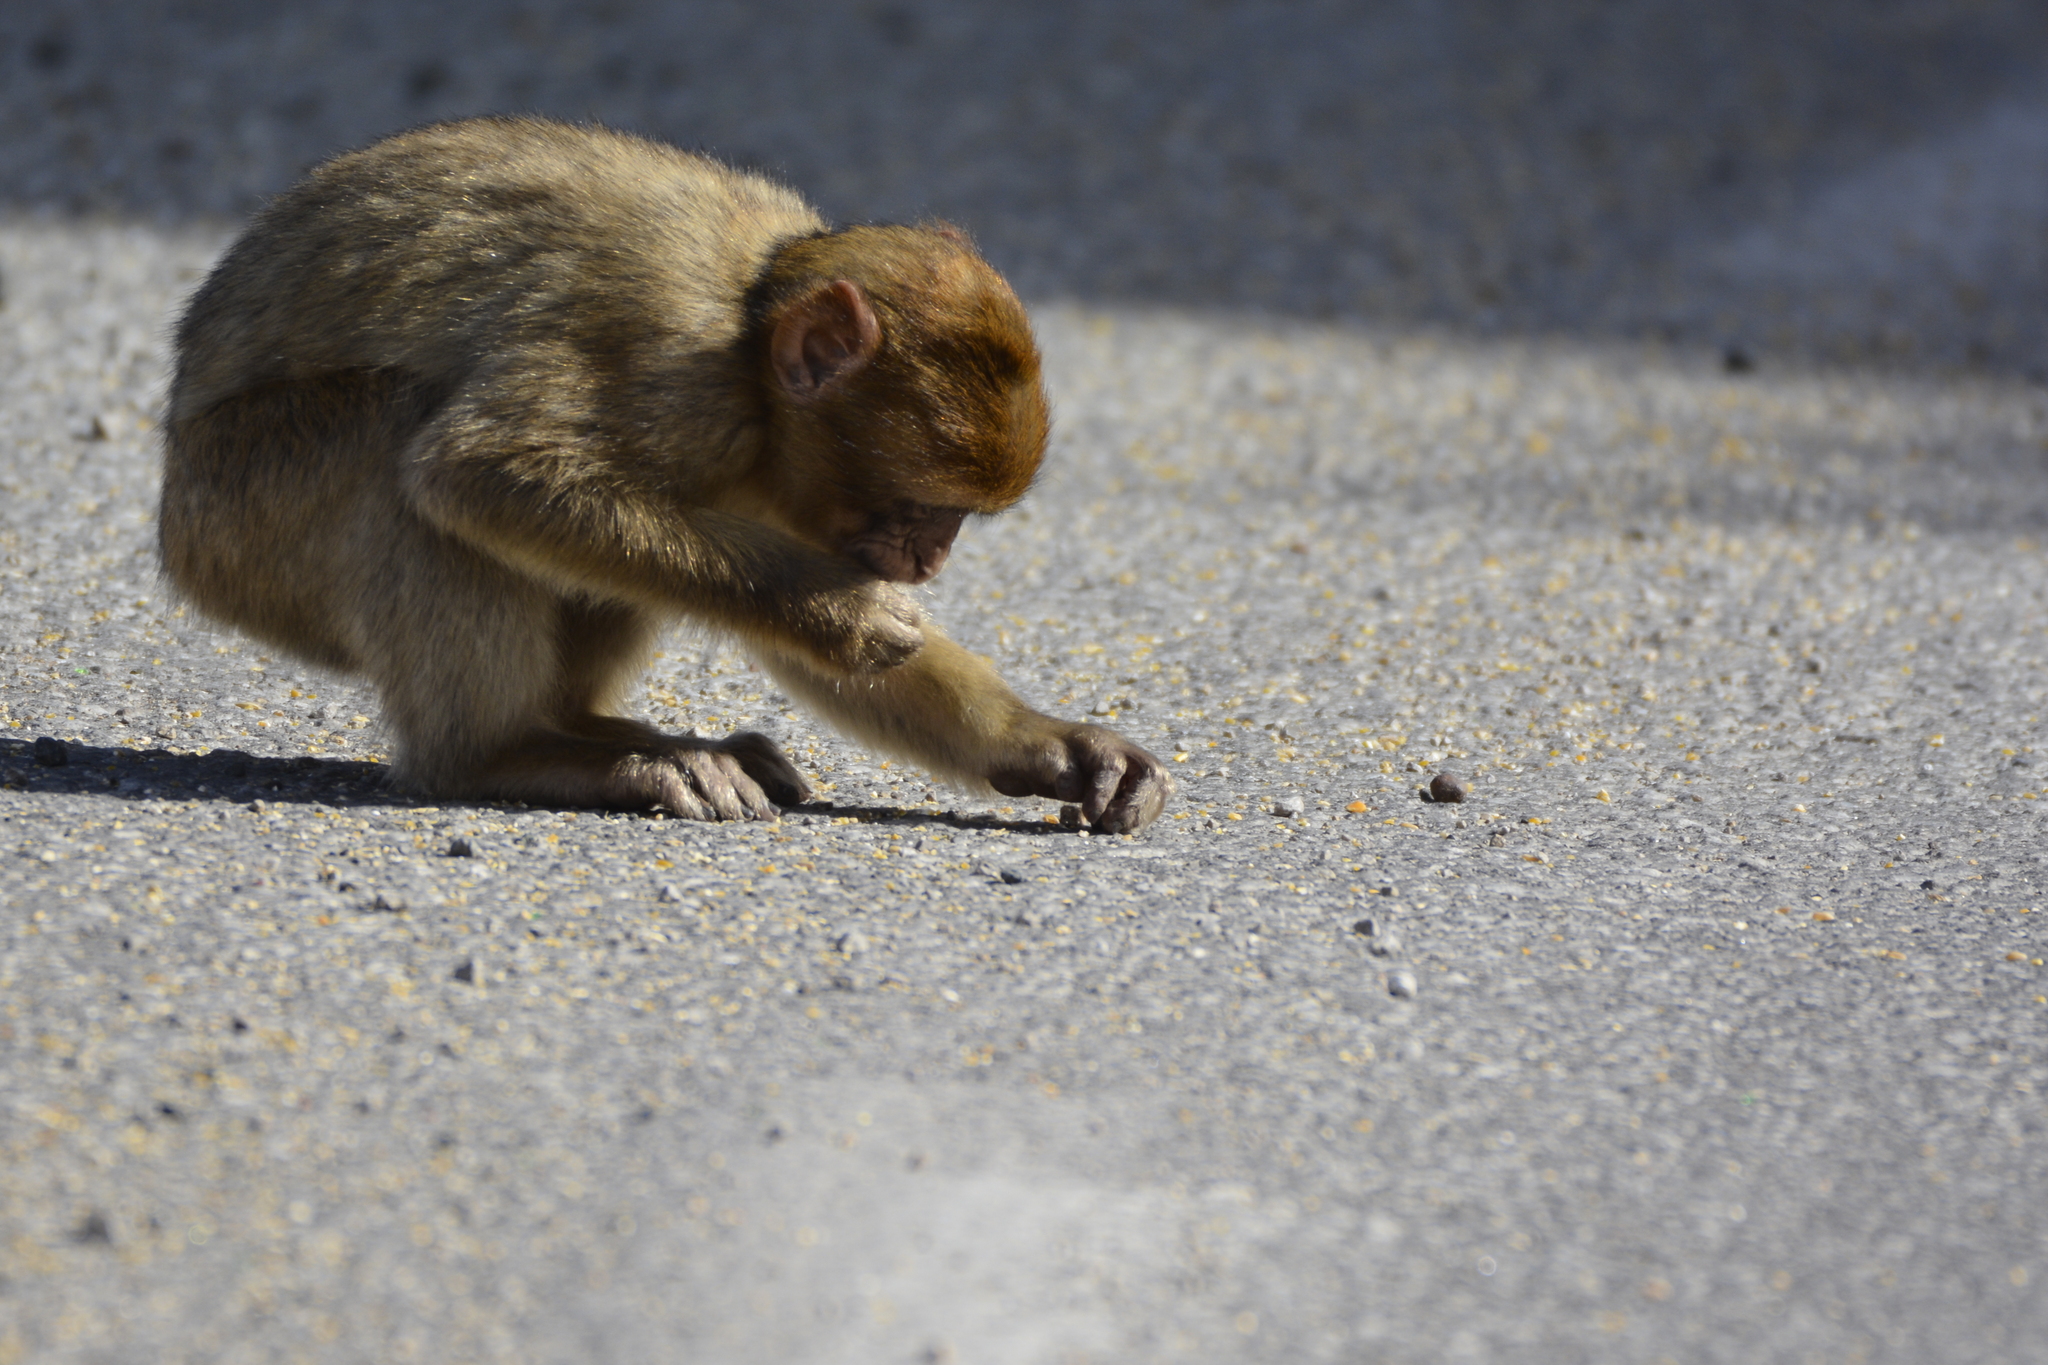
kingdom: Animalia
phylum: Chordata
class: Mammalia
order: Primates
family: Cercopithecidae
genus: Macaca
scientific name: Macaca sylvanus
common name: Barbary macaque
